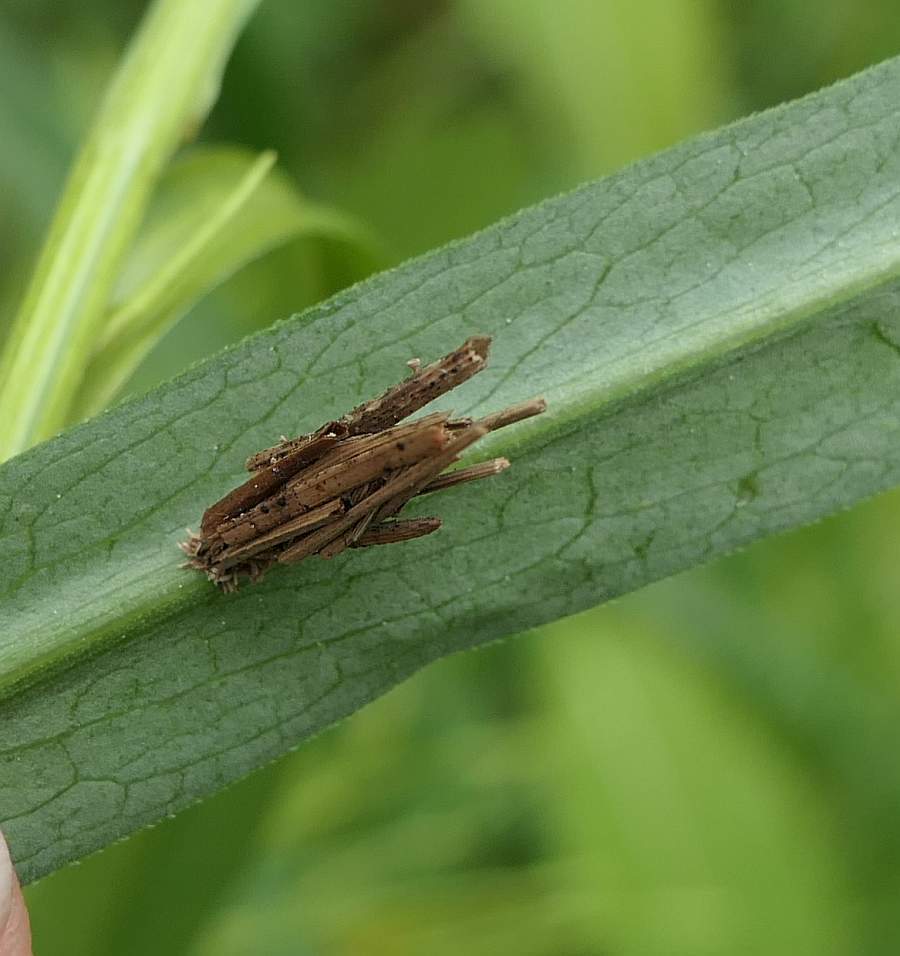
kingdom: Animalia
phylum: Arthropoda
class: Insecta
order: Lepidoptera
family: Psychidae
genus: Psyche
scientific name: Psyche casta
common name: Common sweep
